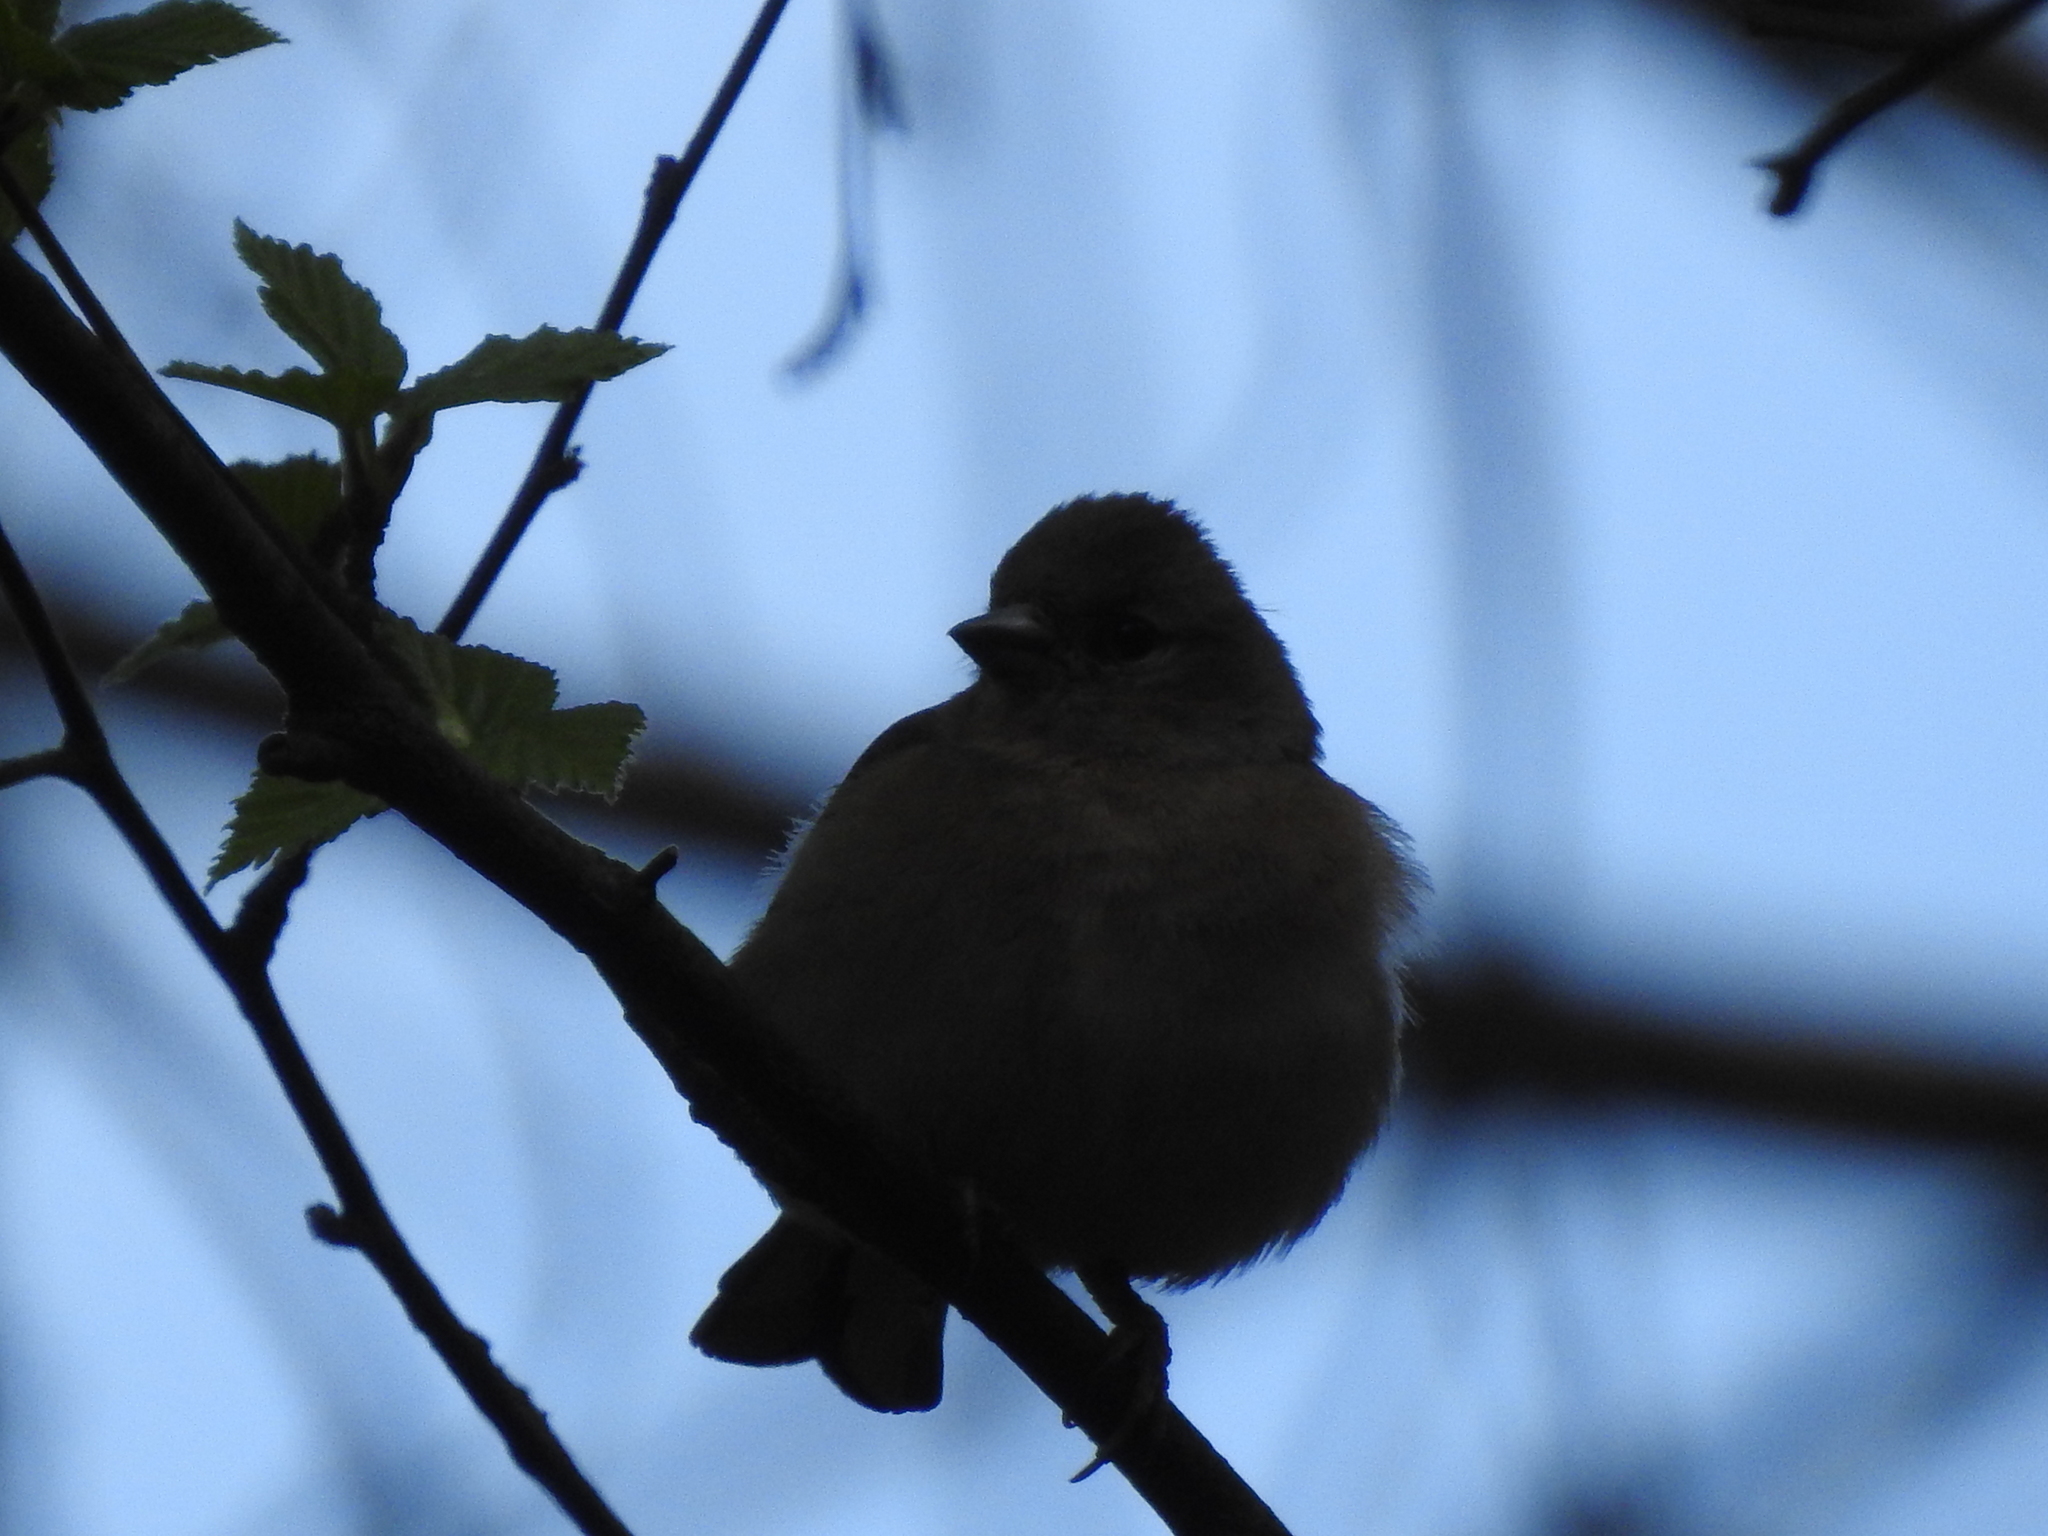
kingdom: Animalia
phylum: Chordata
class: Aves
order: Passeriformes
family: Fringillidae
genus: Fringilla
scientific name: Fringilla coelebs
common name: Common chaffinch
